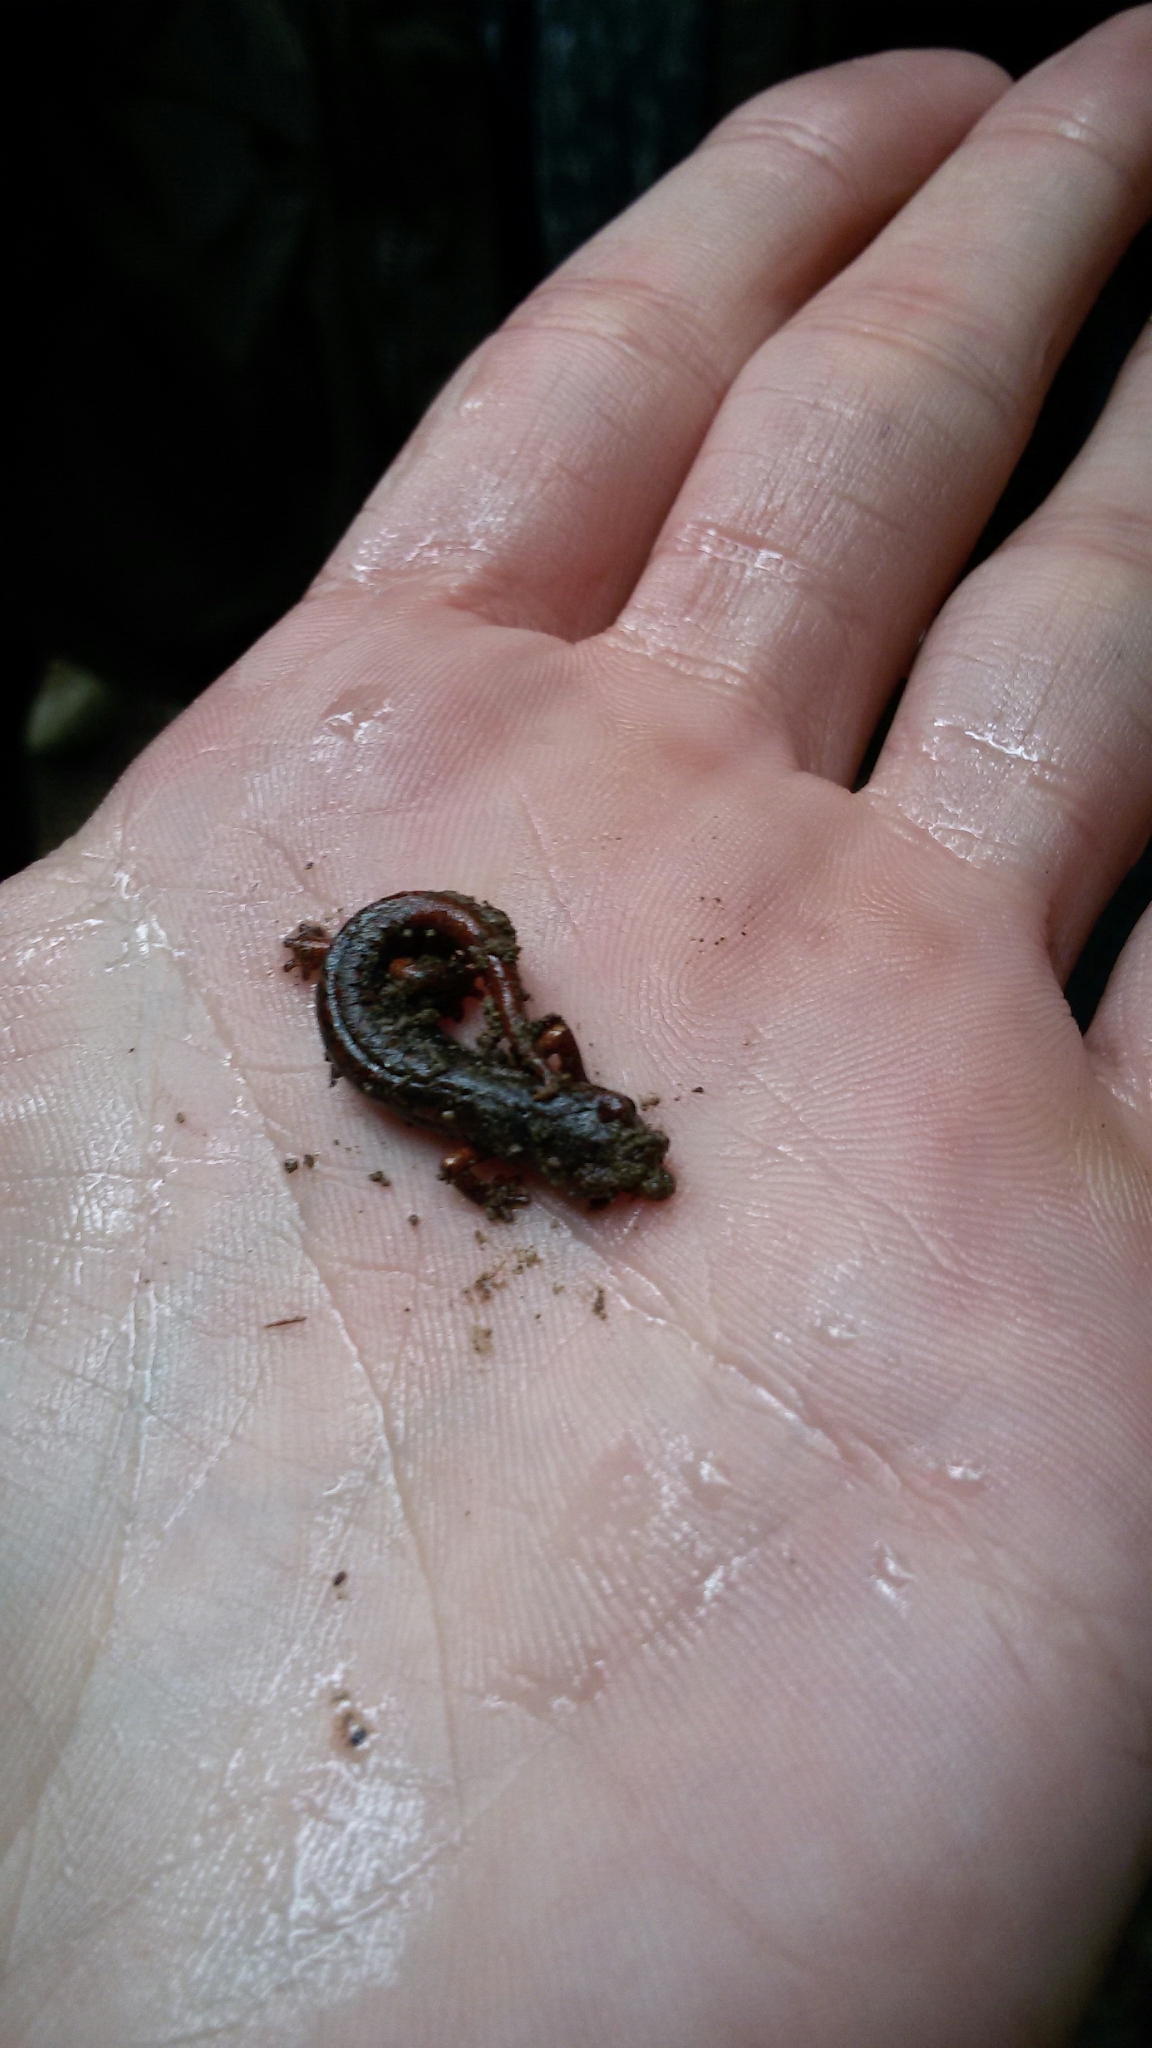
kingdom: Animalia
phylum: Chordata
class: Amphibia
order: Caudata
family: Plethodontidae
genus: Speleomantes
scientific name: Speleomantes italicus
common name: Italian cave salamander
